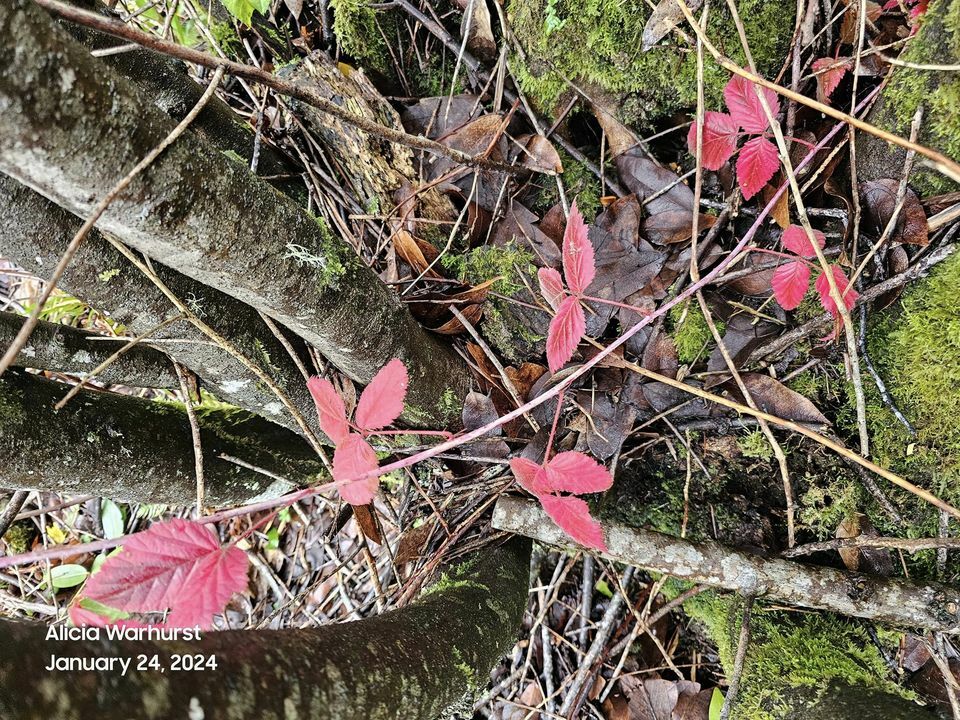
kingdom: Plantae
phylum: Tracheophyta
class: Magnoliopsida
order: Rosales
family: Rosaceae
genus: Rubus
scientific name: Rubus ursinus
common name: Pacific blackberry
